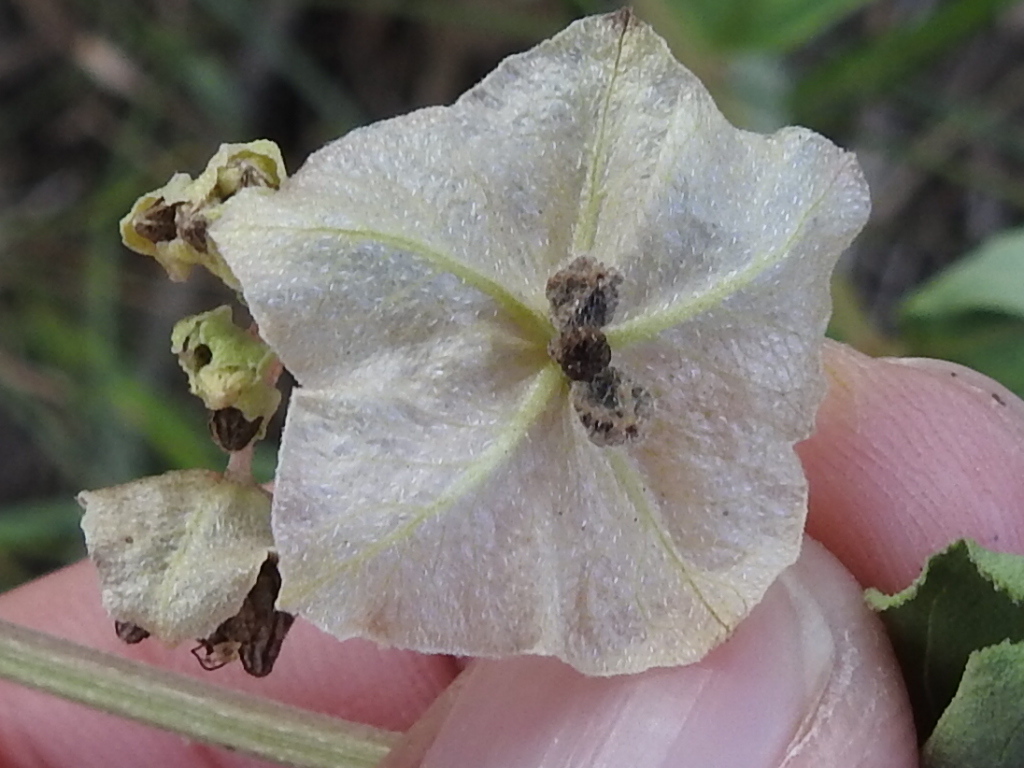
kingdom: Plantae
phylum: Tracheophyta
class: Magnoliopsida
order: Caryophyllales
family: Nyctaginaceae
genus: Mirabilis
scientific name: Mirabilis albida
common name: Hairy four-o'clock
